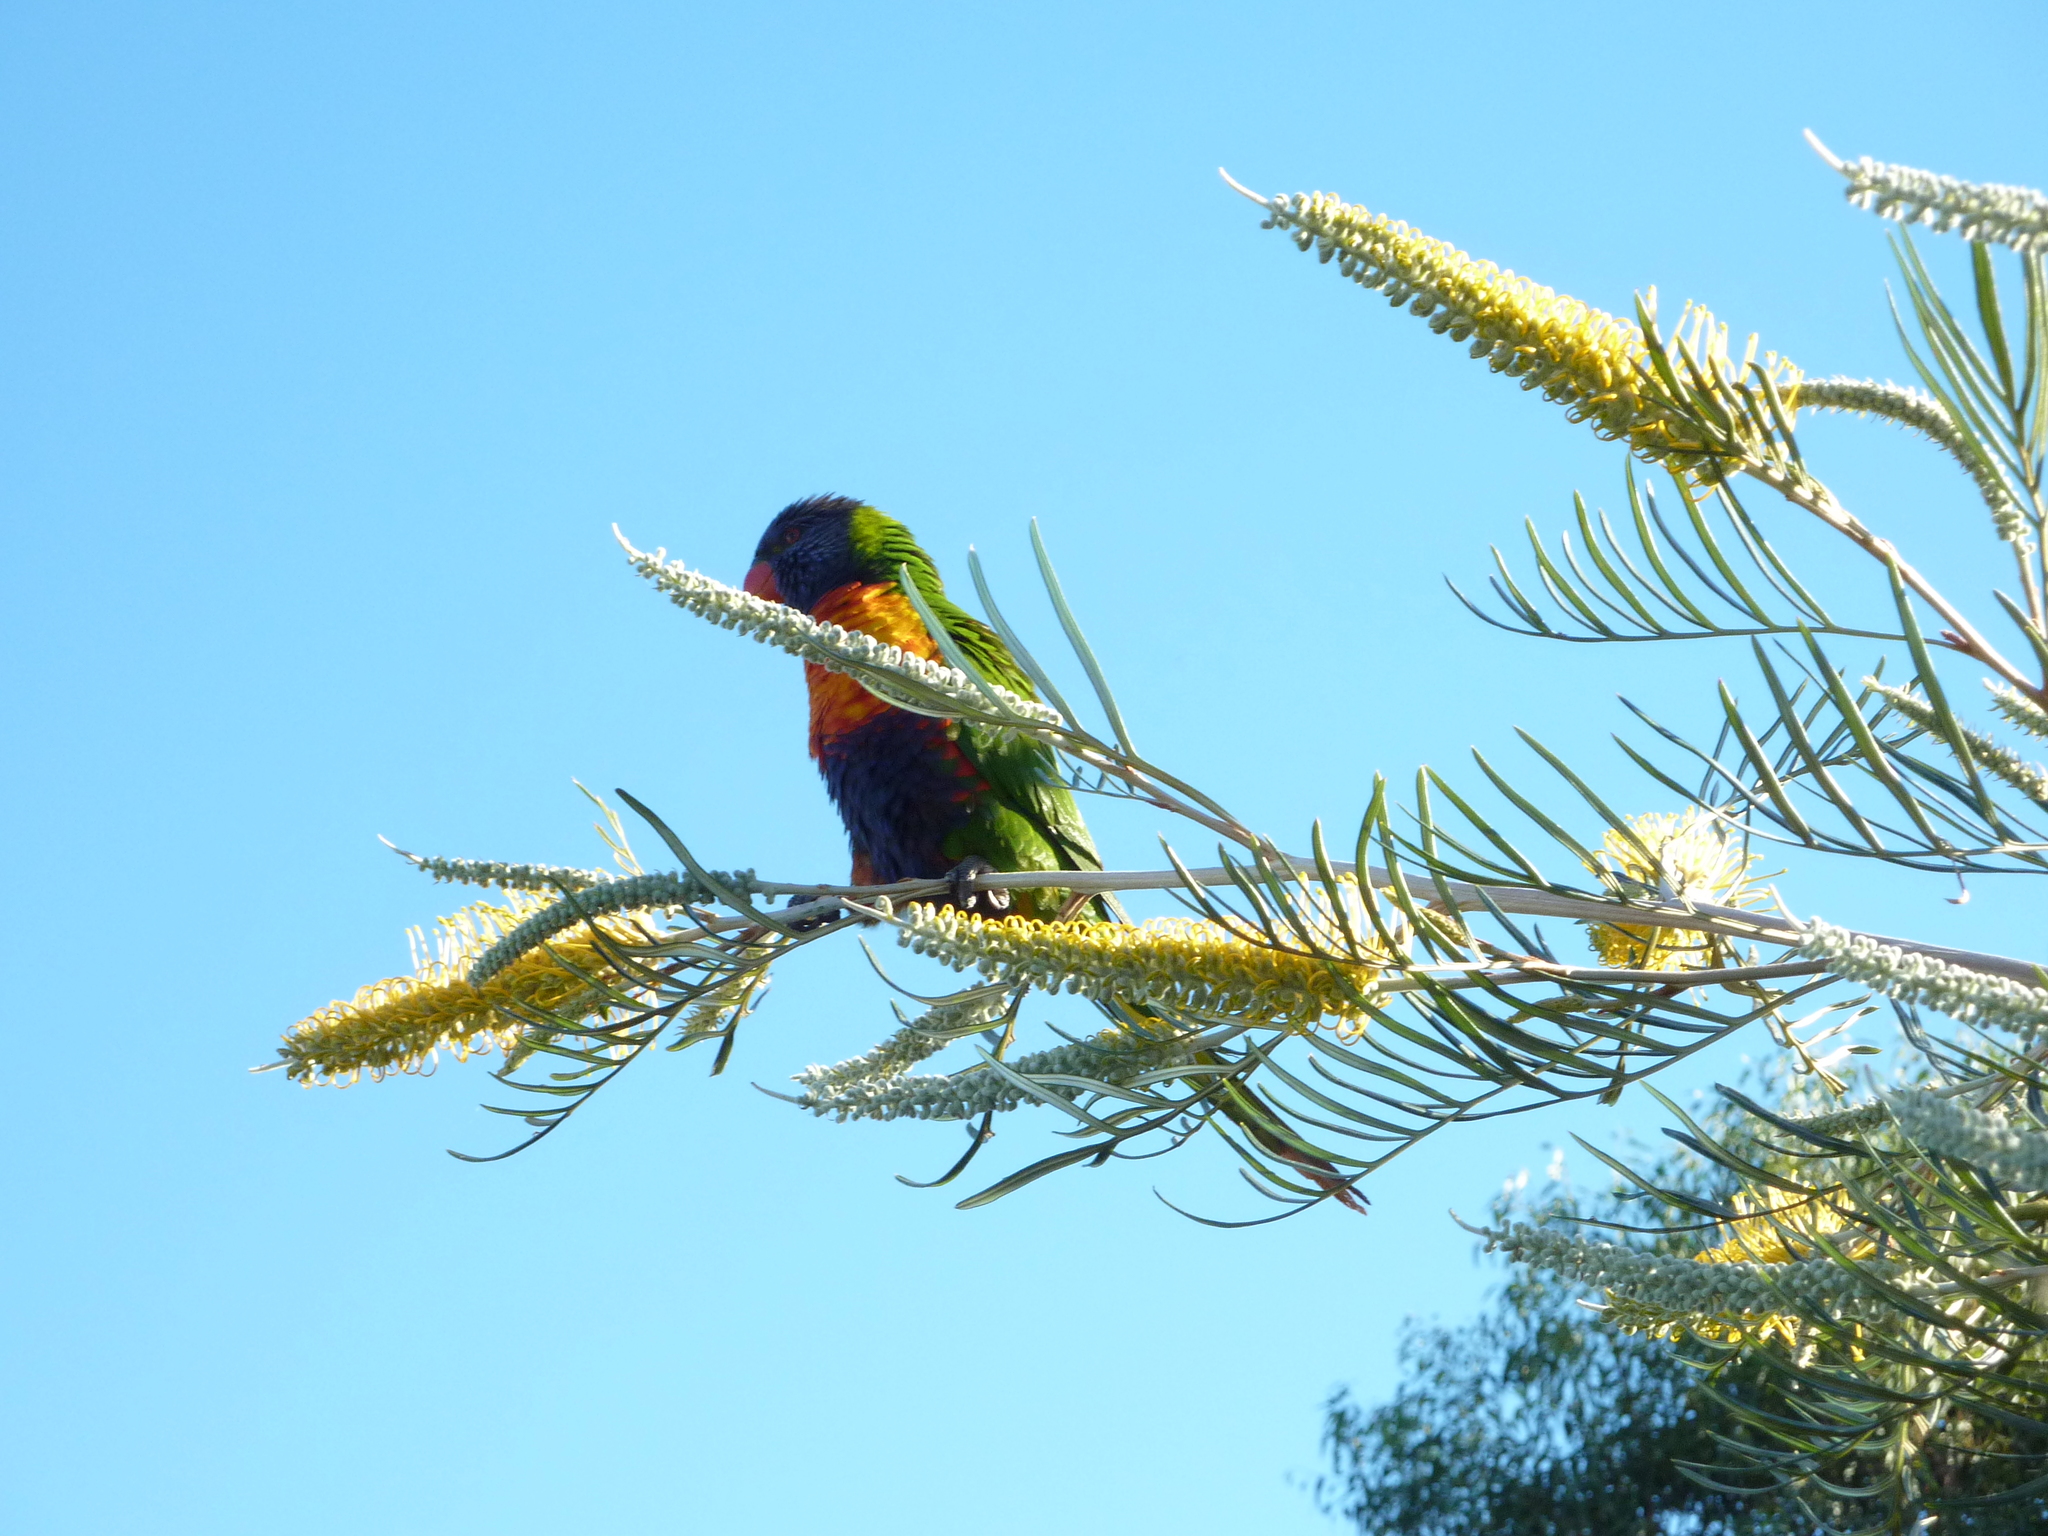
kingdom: Animalia
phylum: Chordata
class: Aves
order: Psittaciformes
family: Psittacidae
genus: Trichoglossus
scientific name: Trichoglossus haematodus
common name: Coconut lorikeet
